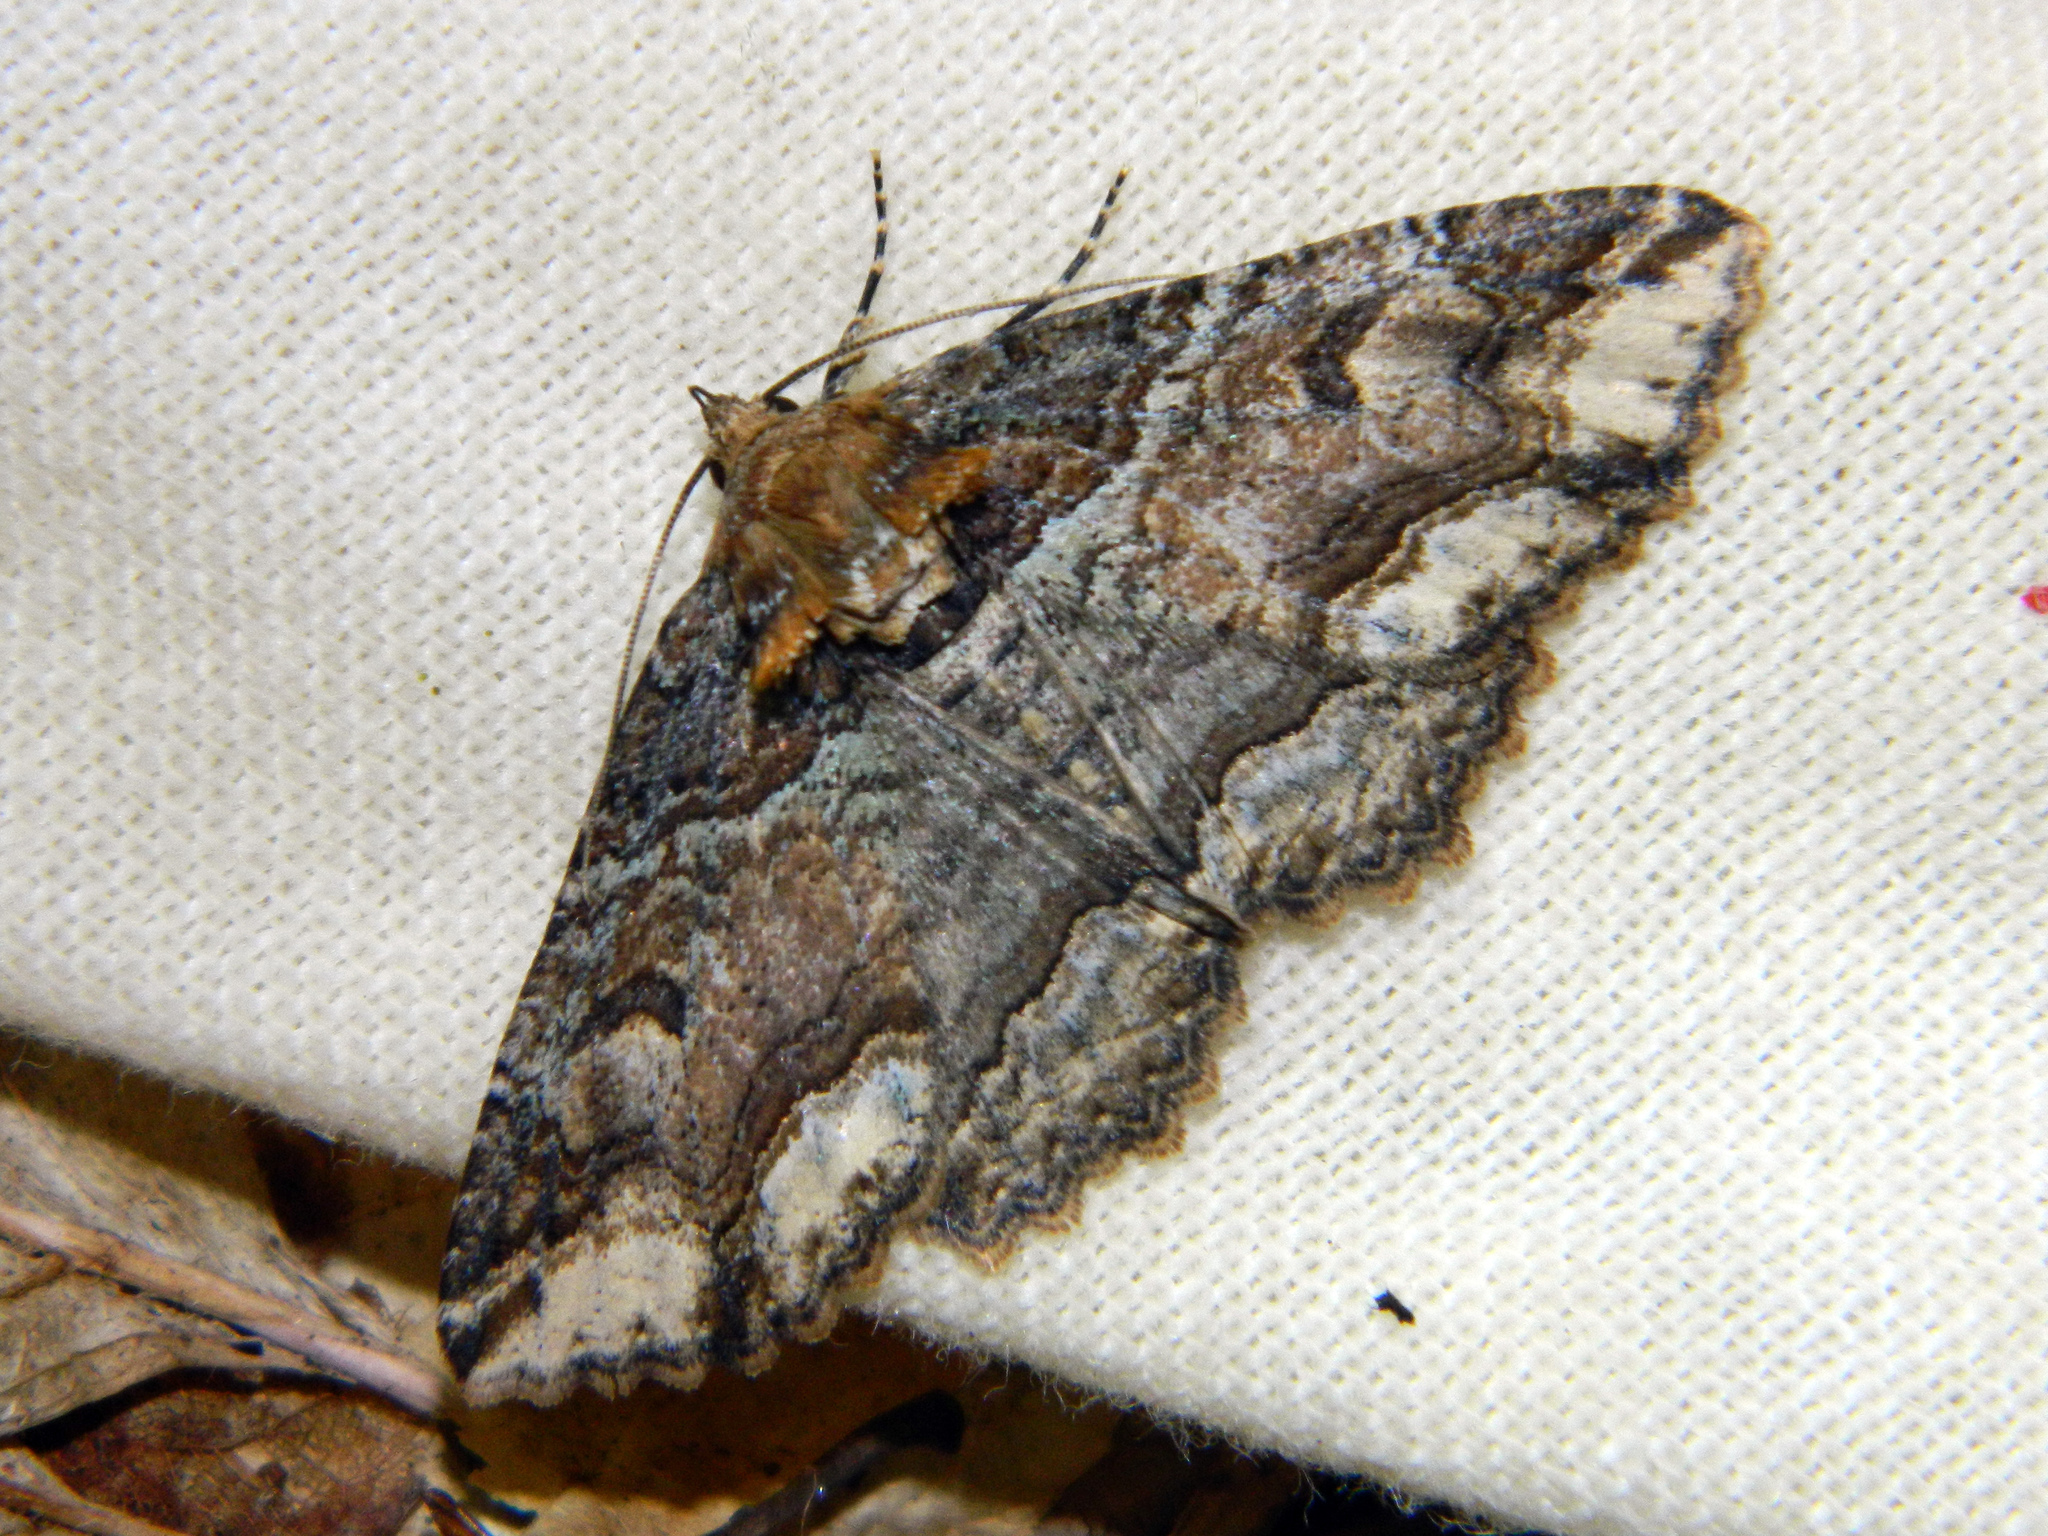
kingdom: Animalia
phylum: Arthropoda
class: Insecta
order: Lepidoptera
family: Erebidae
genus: Zale
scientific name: Zale minerea
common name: Colorful zale moth
